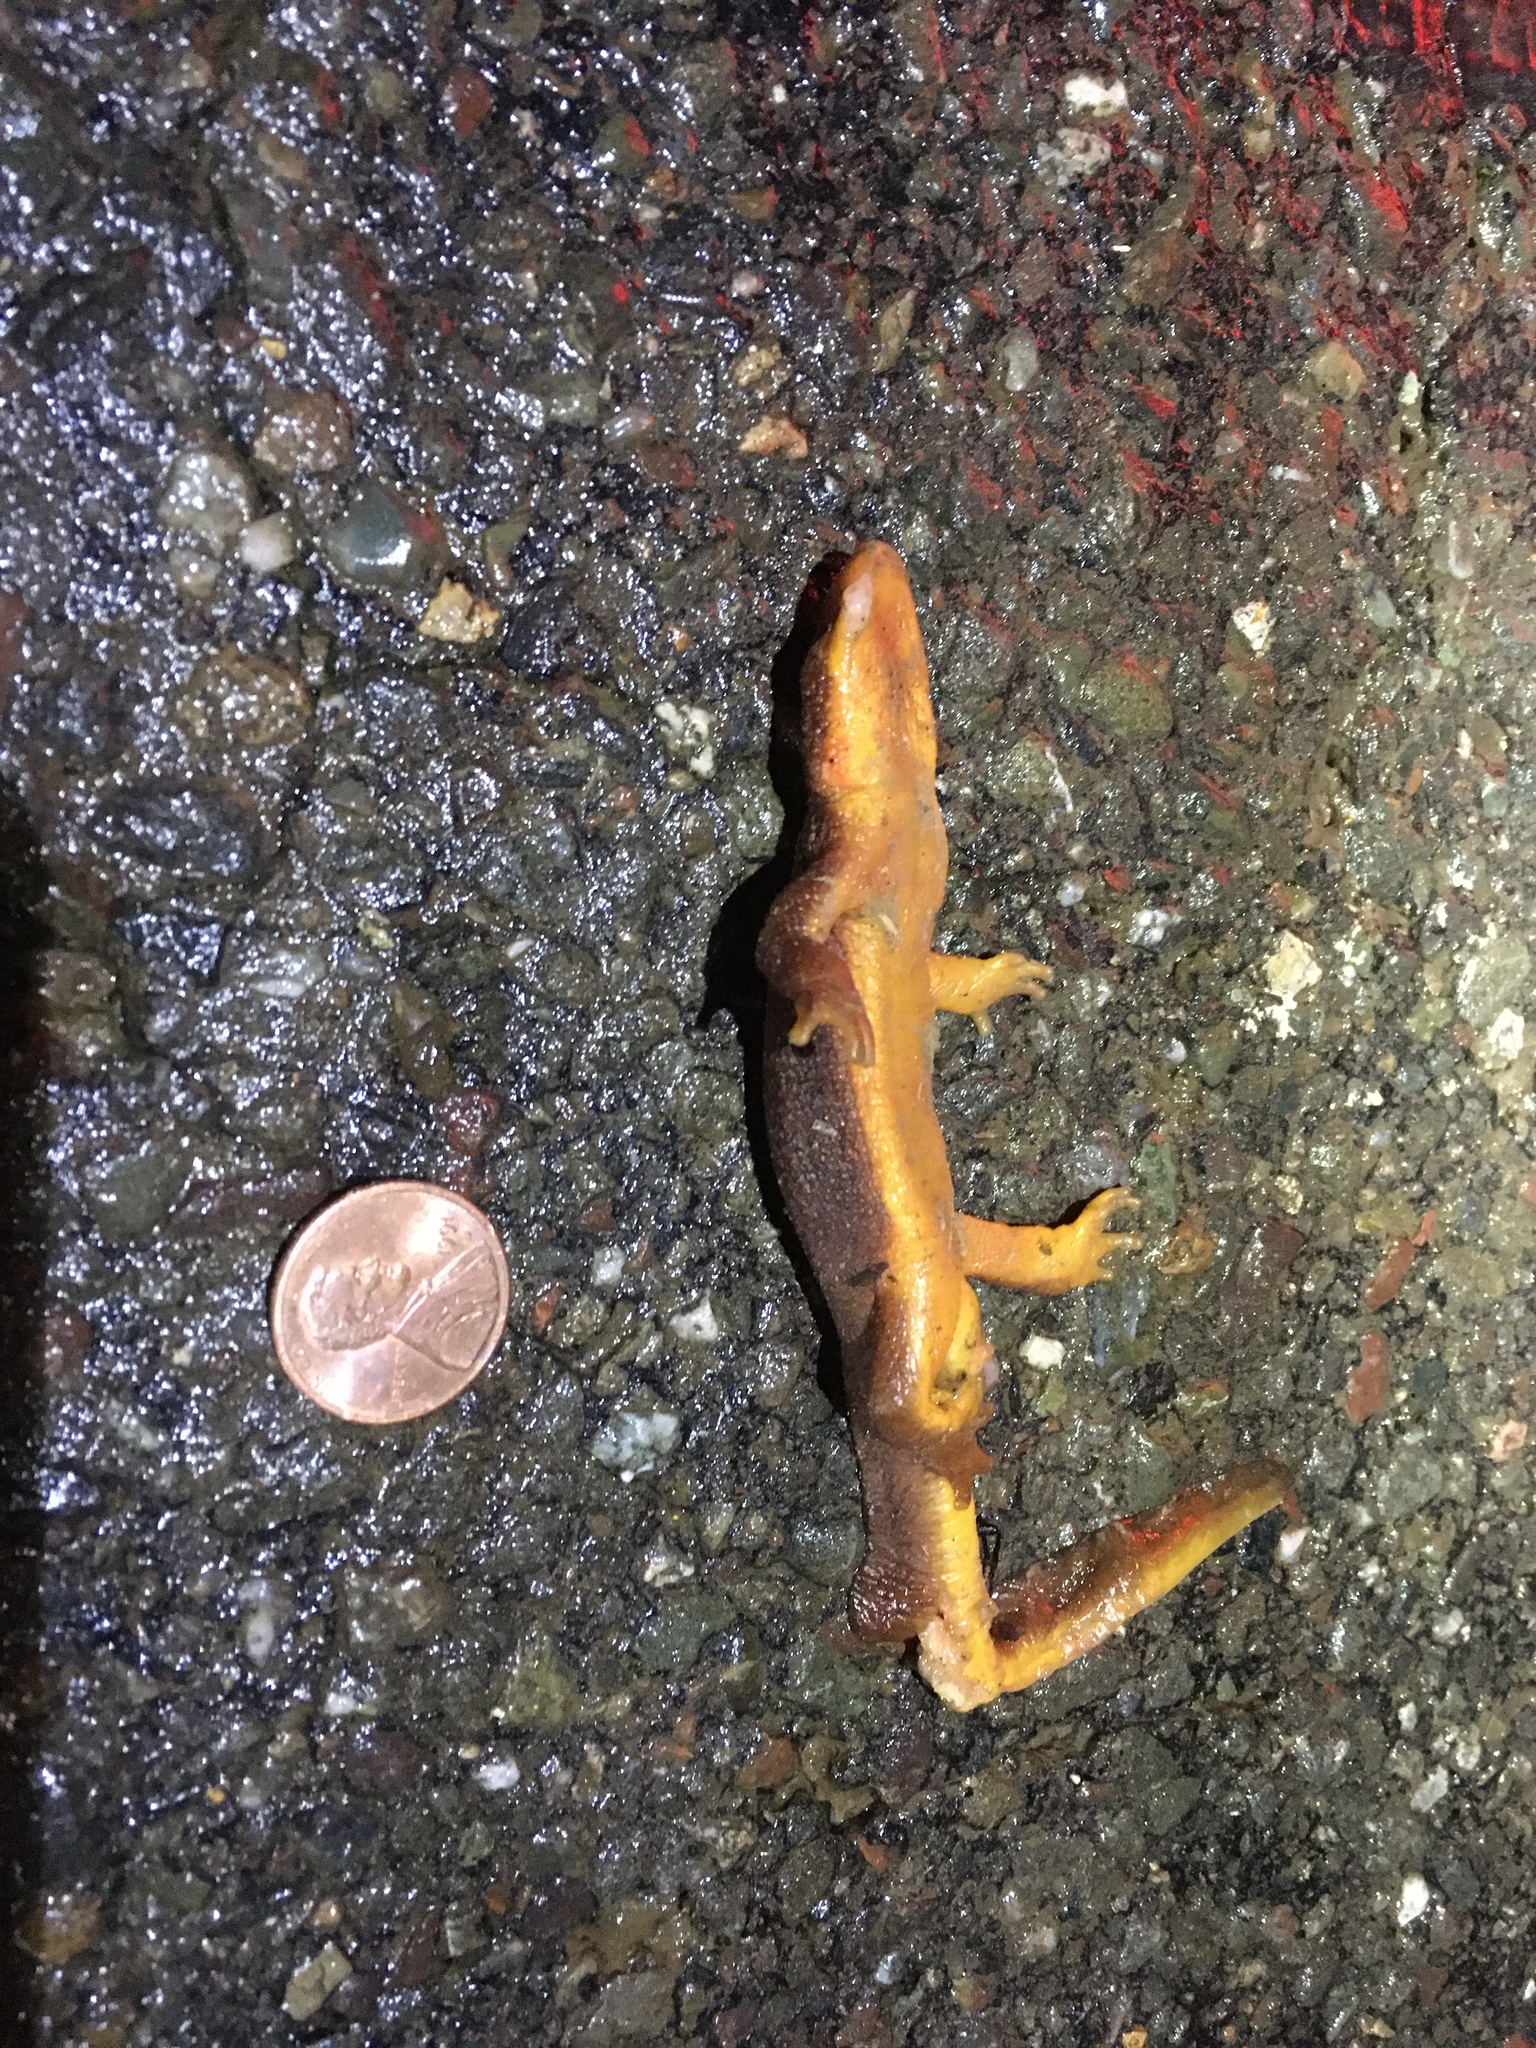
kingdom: Animalia
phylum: Chordata
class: Amphibia
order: Caudata
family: Salamandridae
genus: Taricha
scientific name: Taricha
